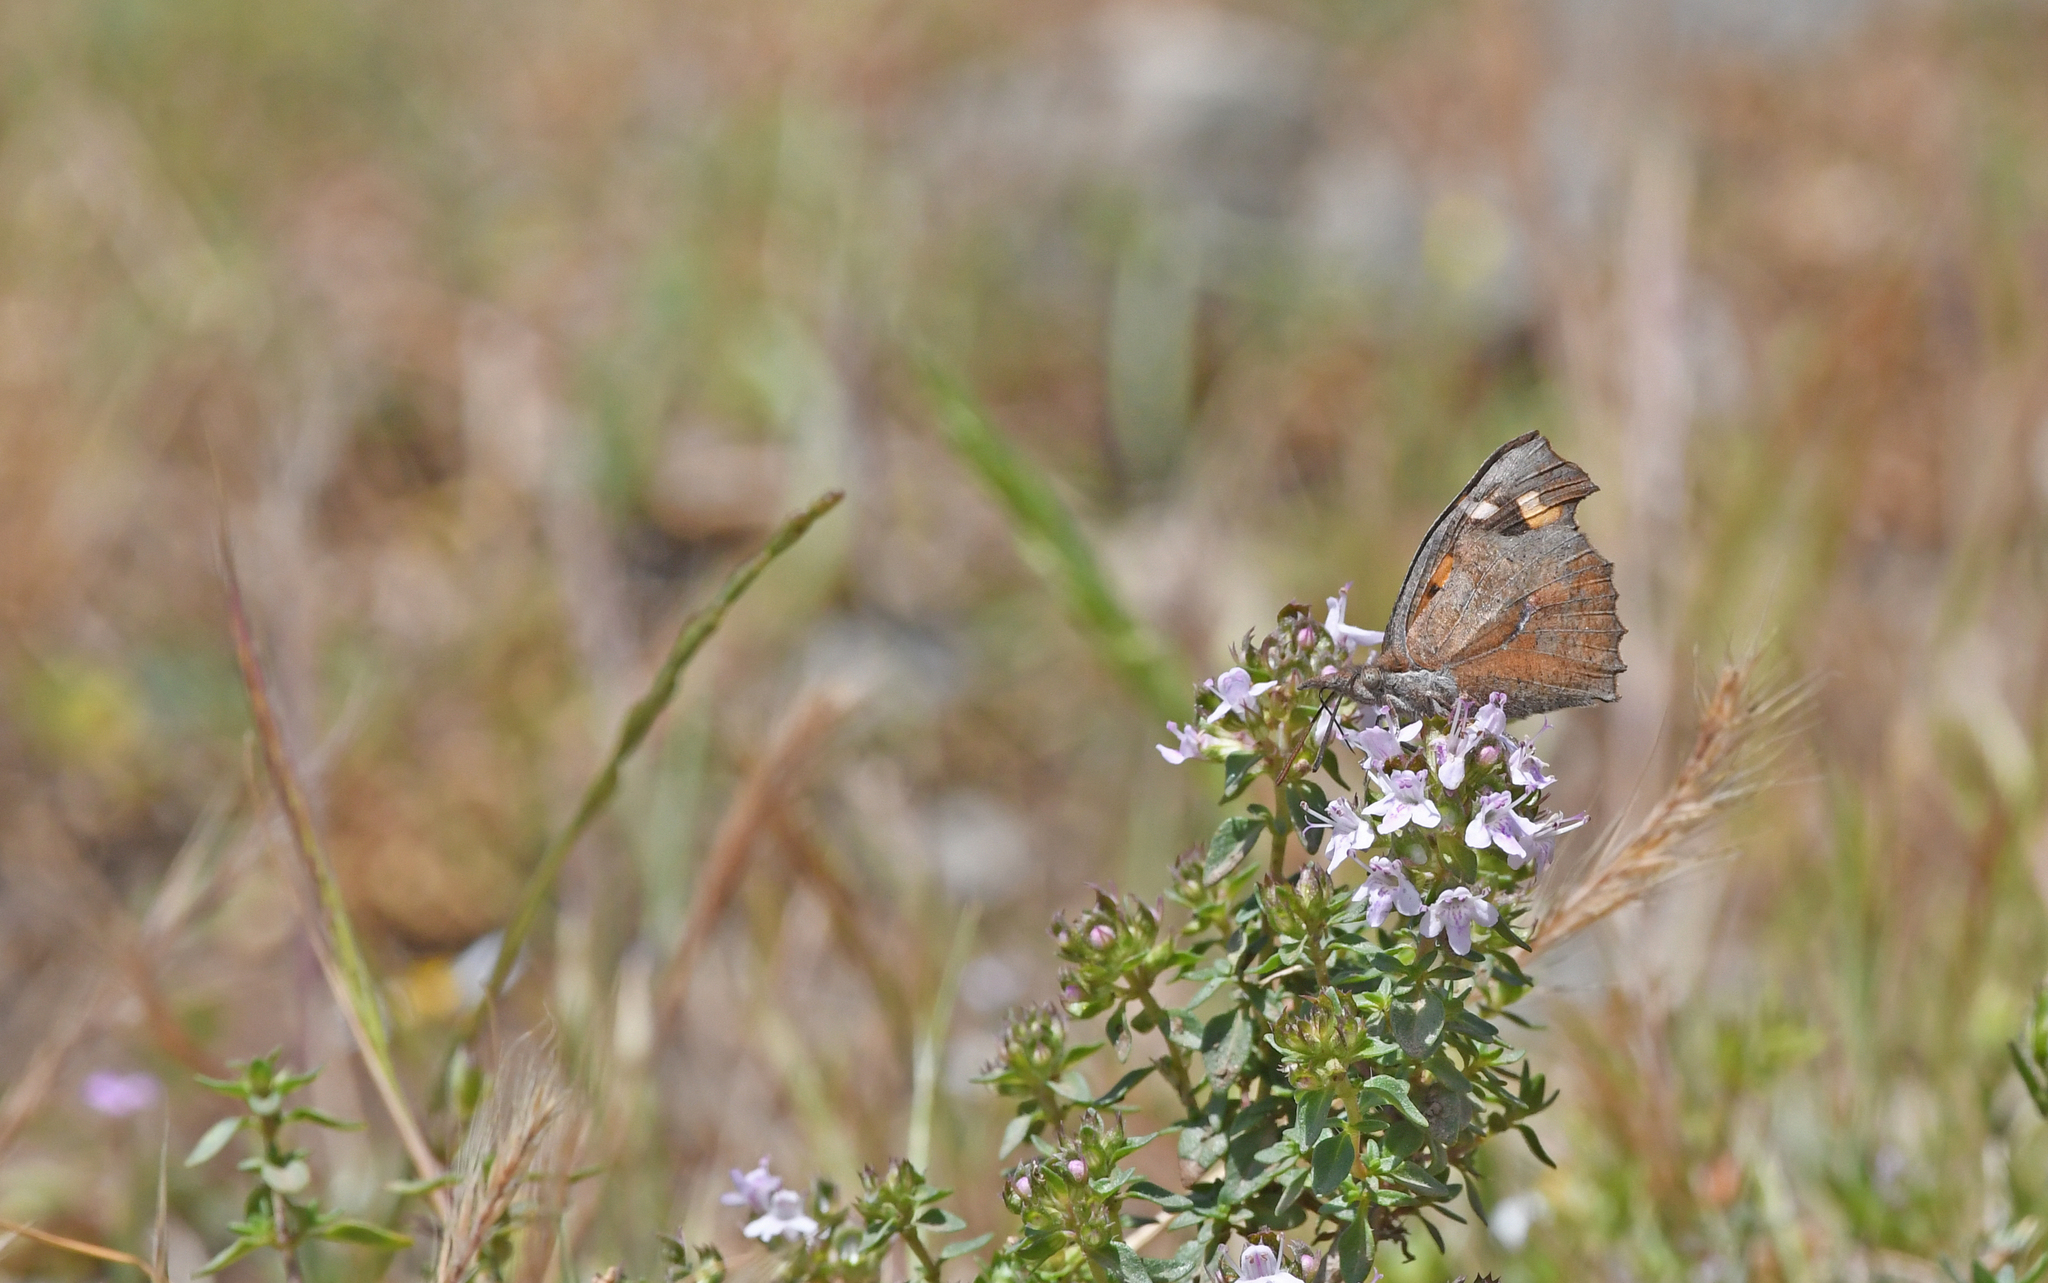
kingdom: Animalia
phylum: Arthropoda
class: Insecta
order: Lepidoptera
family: Nymphalidae
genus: Libythea
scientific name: Libythea celtis
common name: Nettle-tree butterfly
